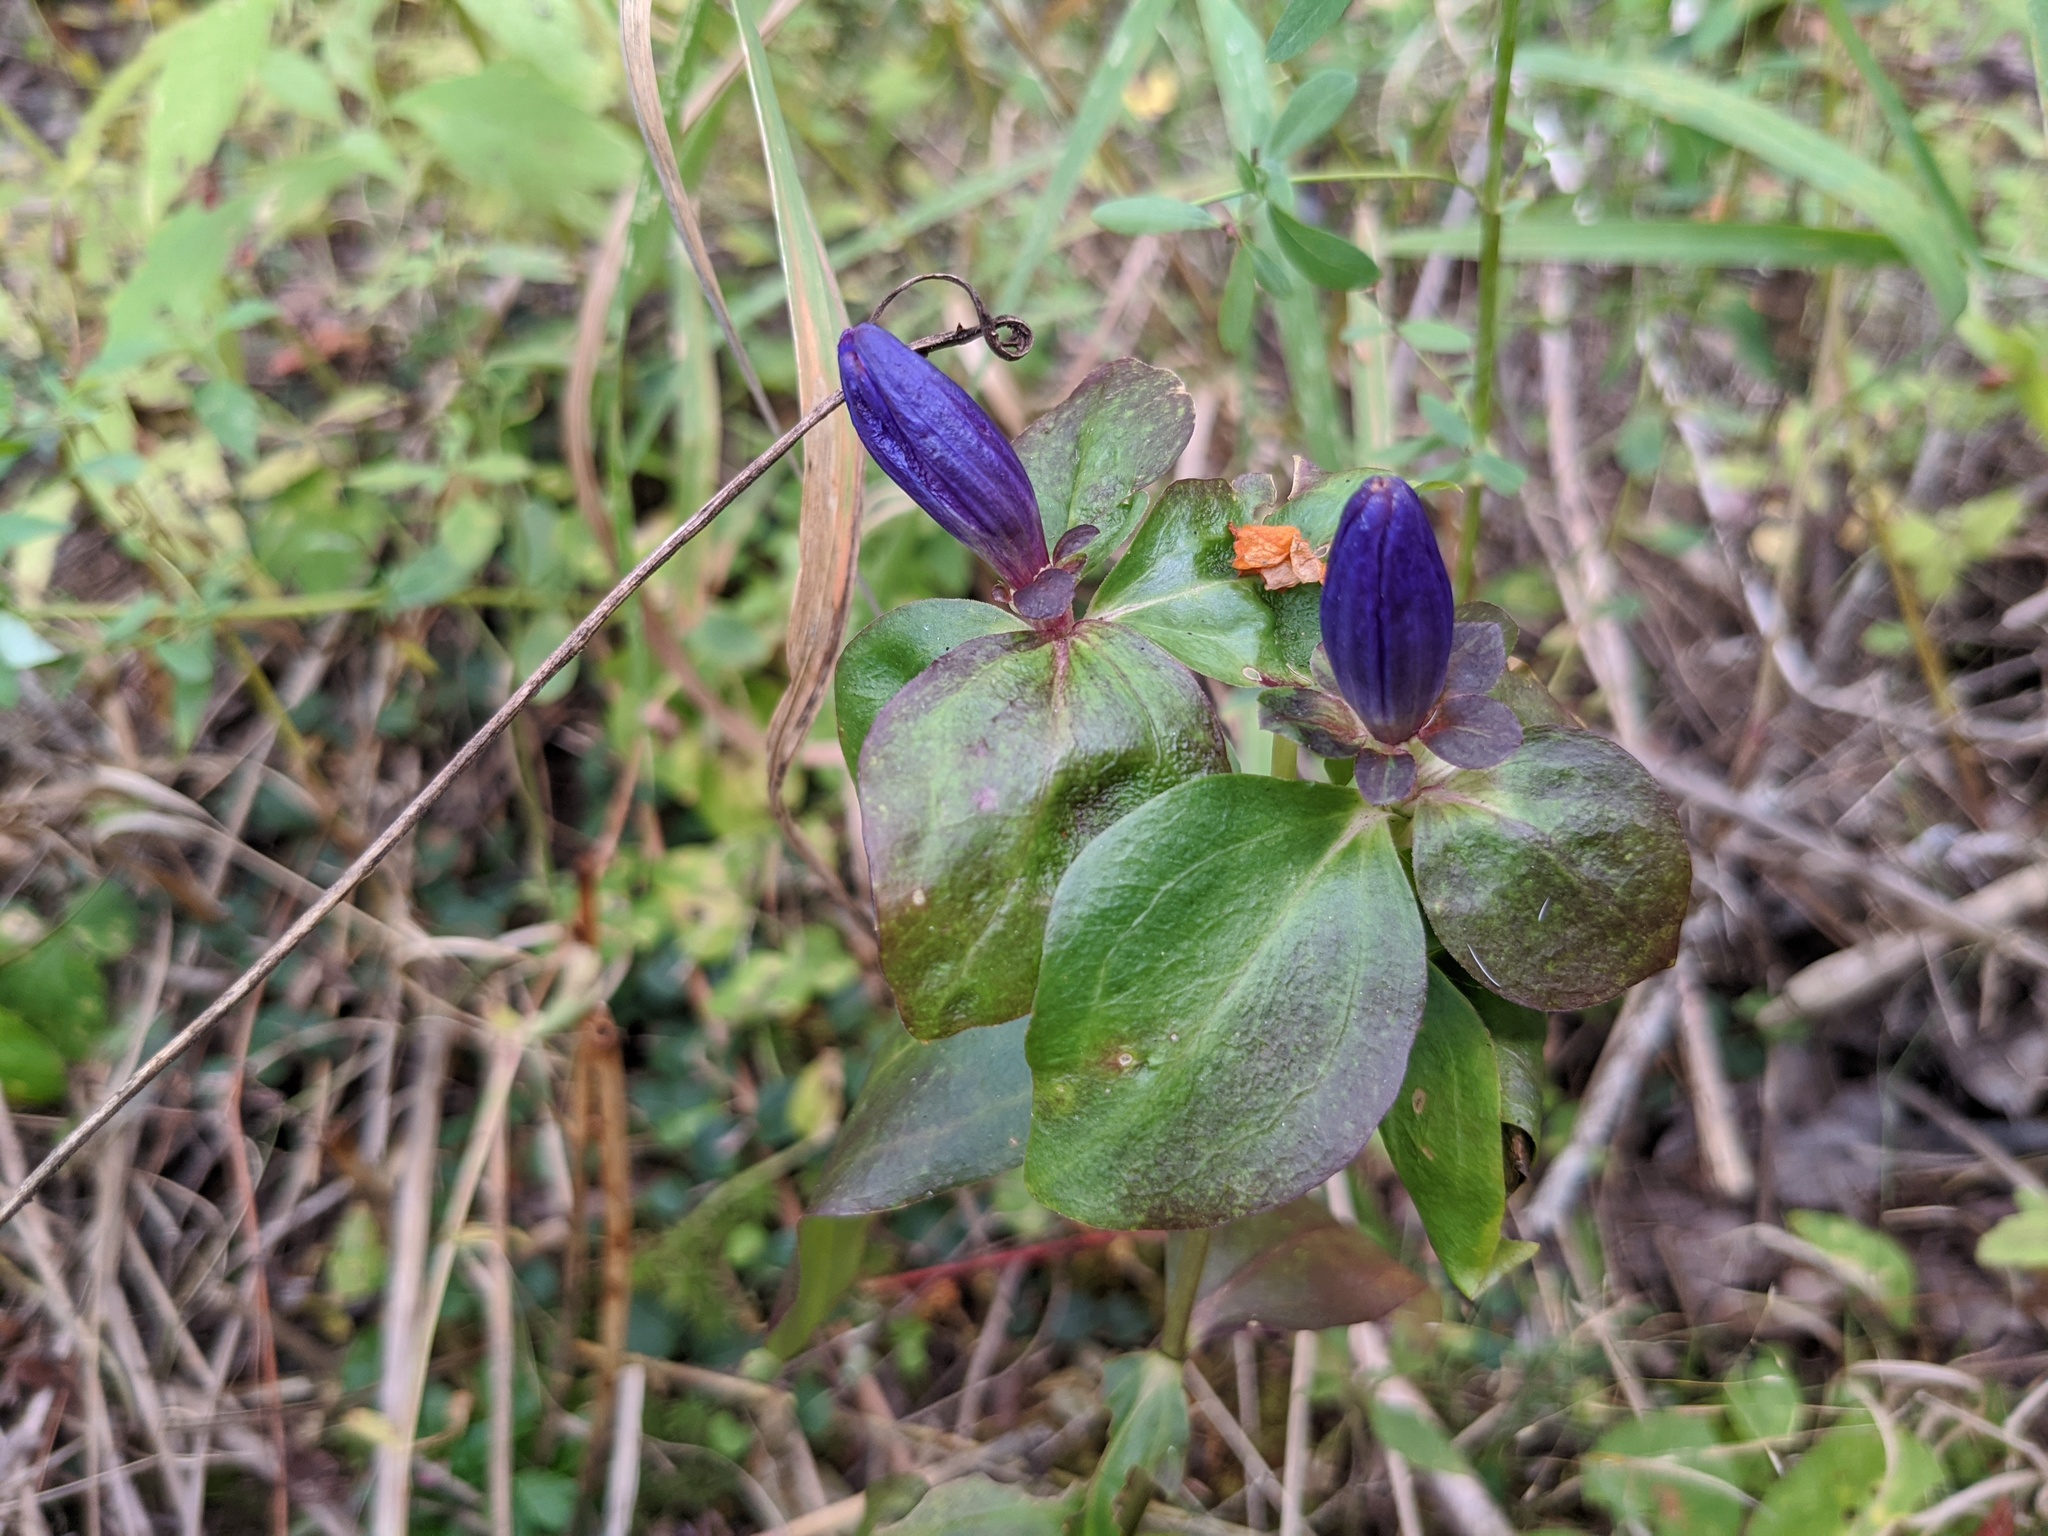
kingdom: Plantae
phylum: Tracheophyta
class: Magnoliopsida
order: Gentianales
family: Gentianaceae
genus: Gentiana
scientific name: Gentiana clausa
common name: Blind gentian
